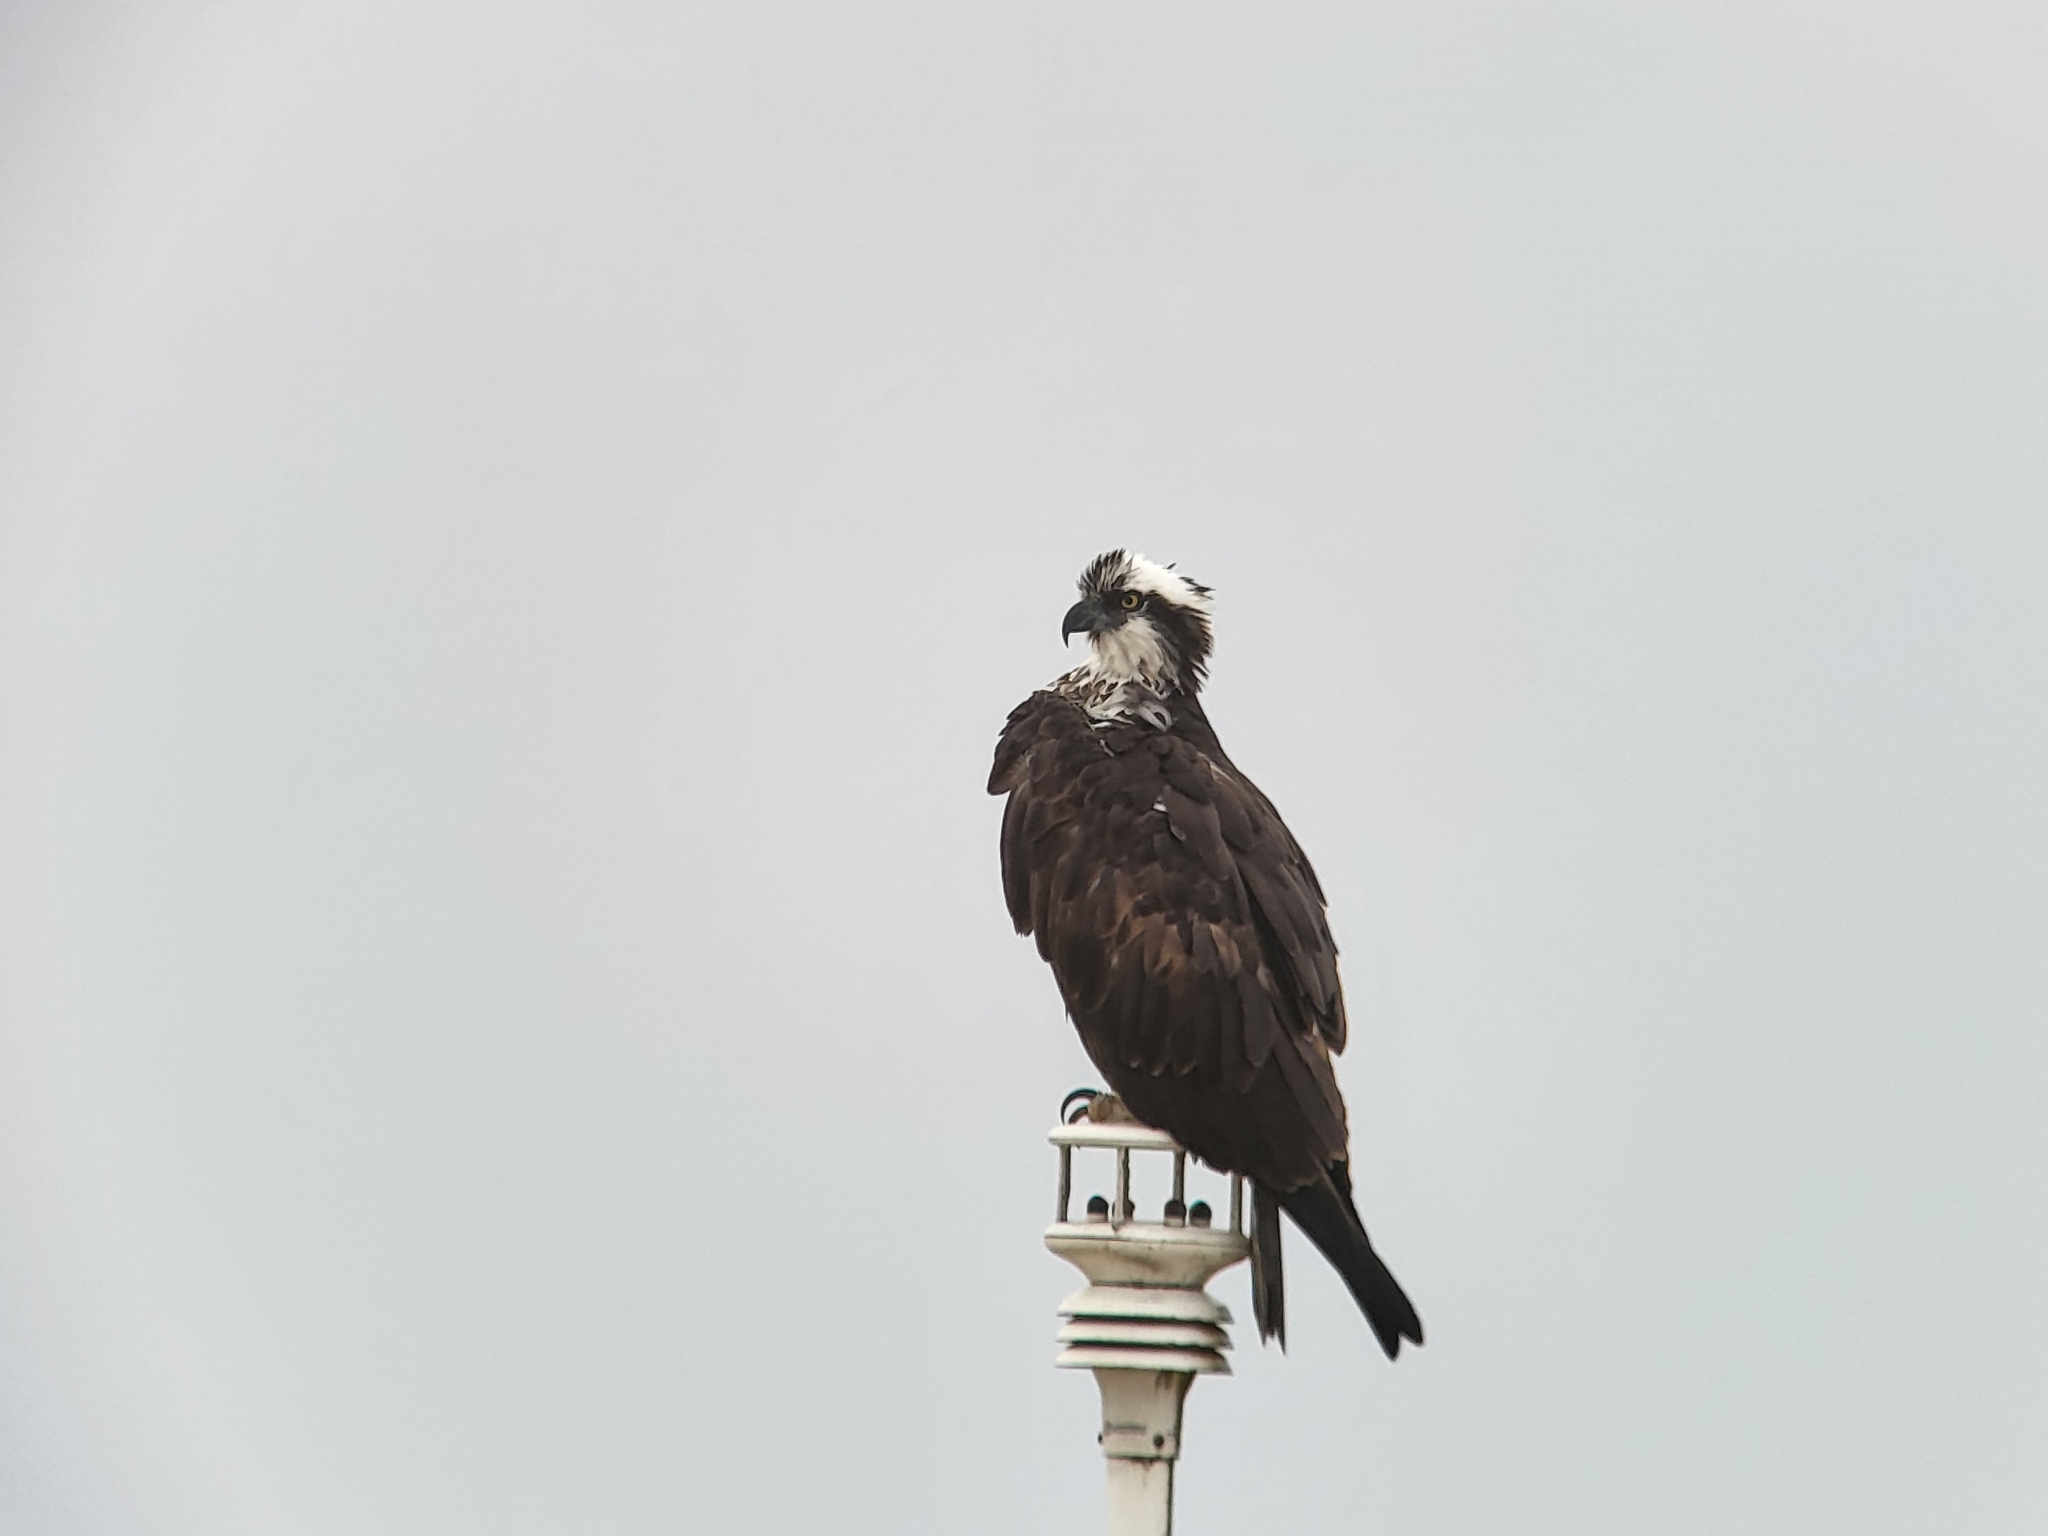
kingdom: Animalia
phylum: Chordata
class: Aves
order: Accipitriformes
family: Pandionidae
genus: Pandion
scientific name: Pandion haliaetus
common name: Osprey
